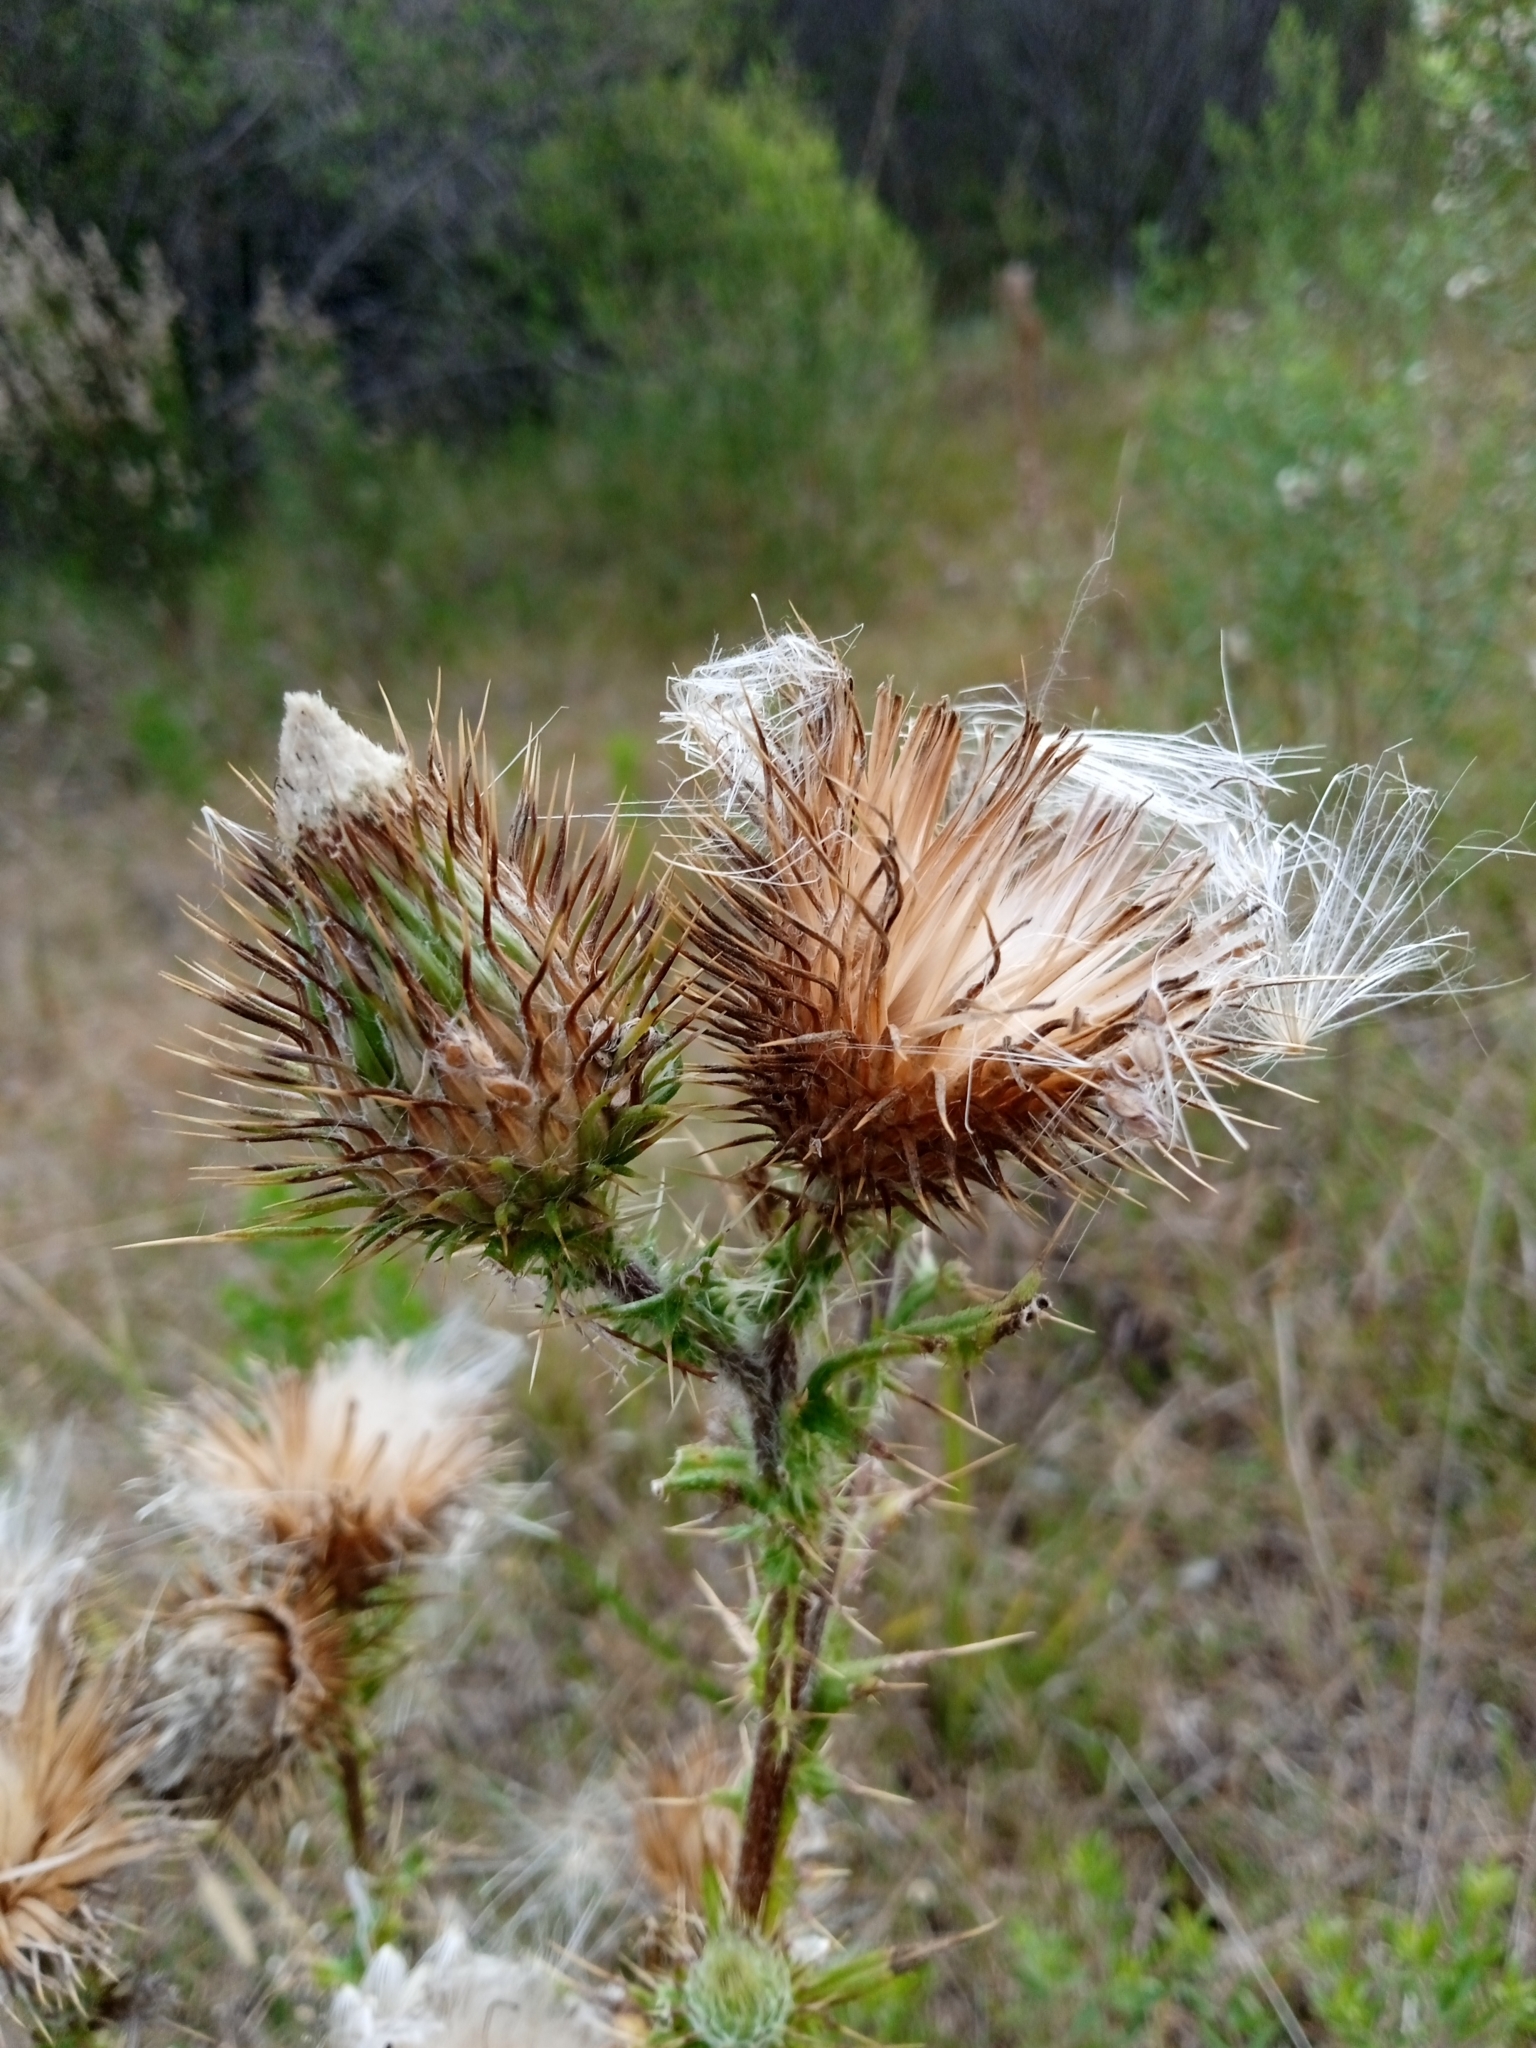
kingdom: Plantae
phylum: Tracheophyta
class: Magnoliopsida
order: Asterales
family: Asteraceae
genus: Cirsium
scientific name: Cirsium vulgare
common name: Bull thistle
